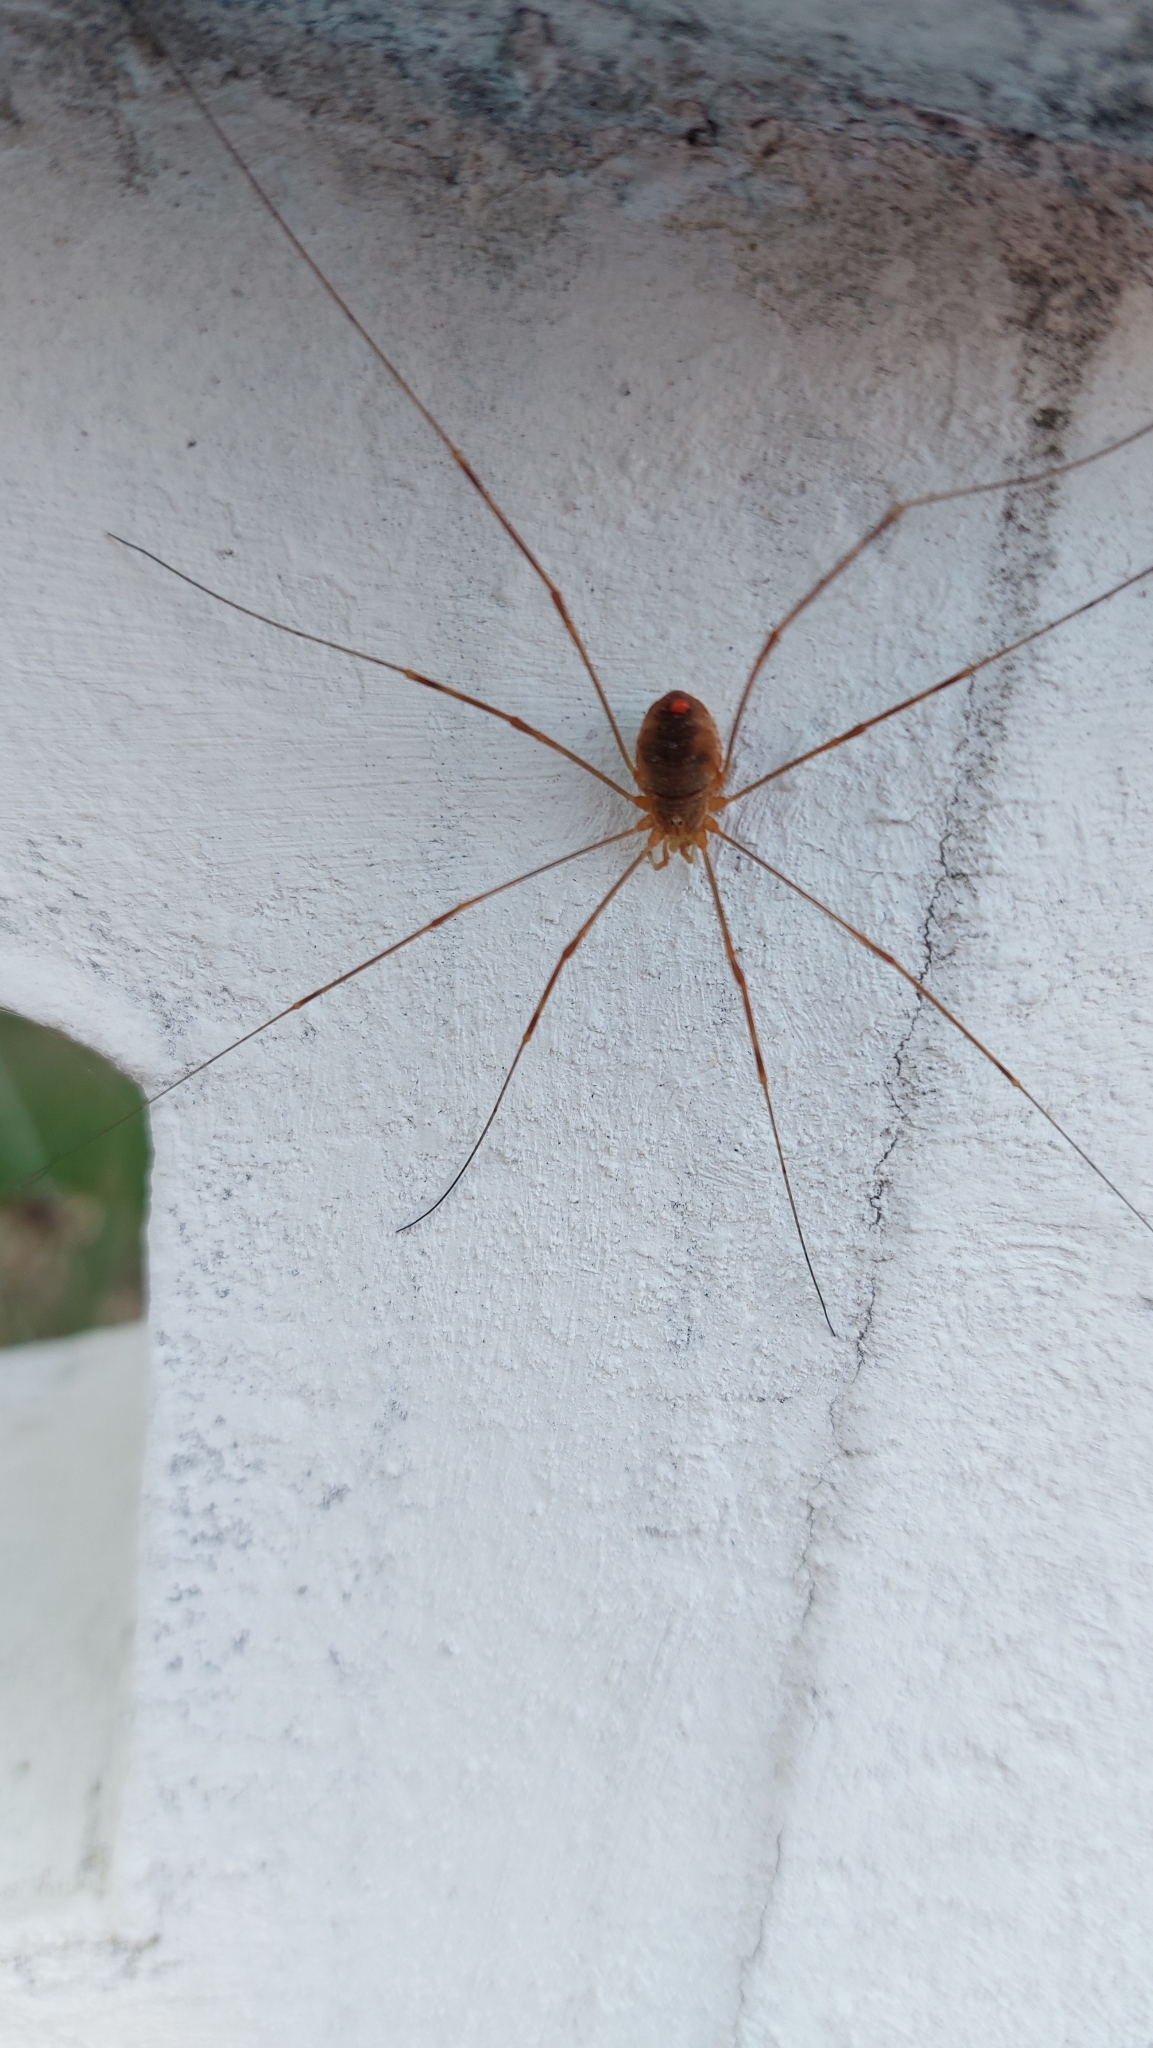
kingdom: Animalia
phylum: Arthropoda
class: Arachnida
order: Opiliones
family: Phalangiidae
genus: Opilio
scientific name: Opilio canestrinii
